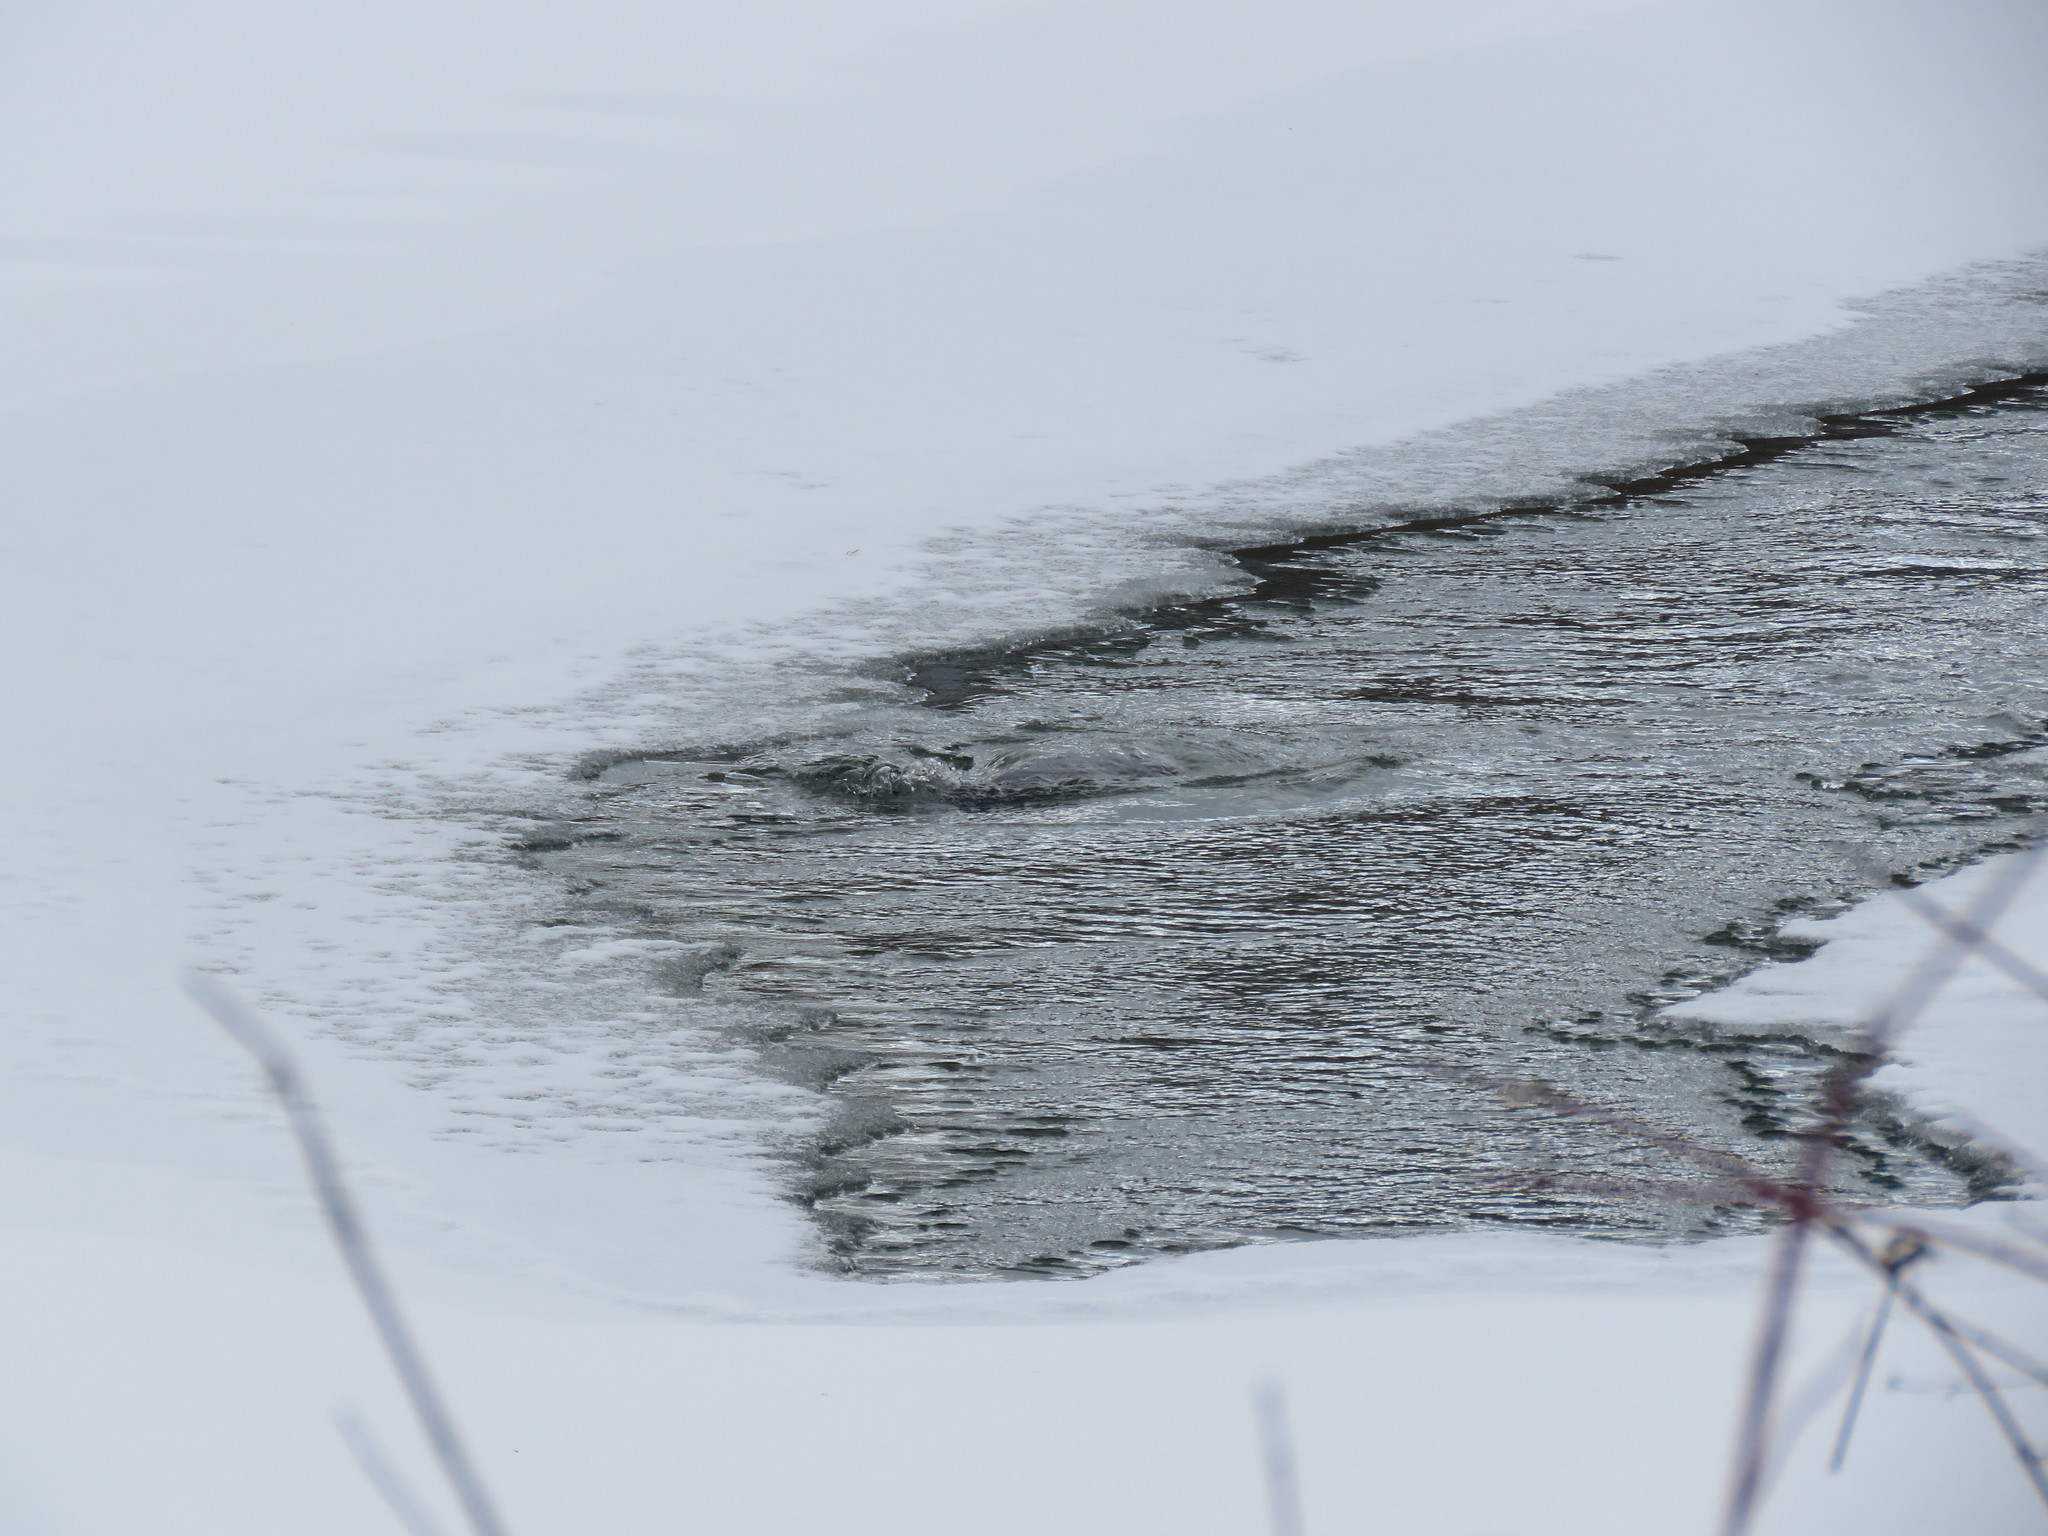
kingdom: Animalia
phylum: Chordata
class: Mammalia
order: Rodentia
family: Castoridae
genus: Castor
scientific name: Castor canadensis
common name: American beaver
